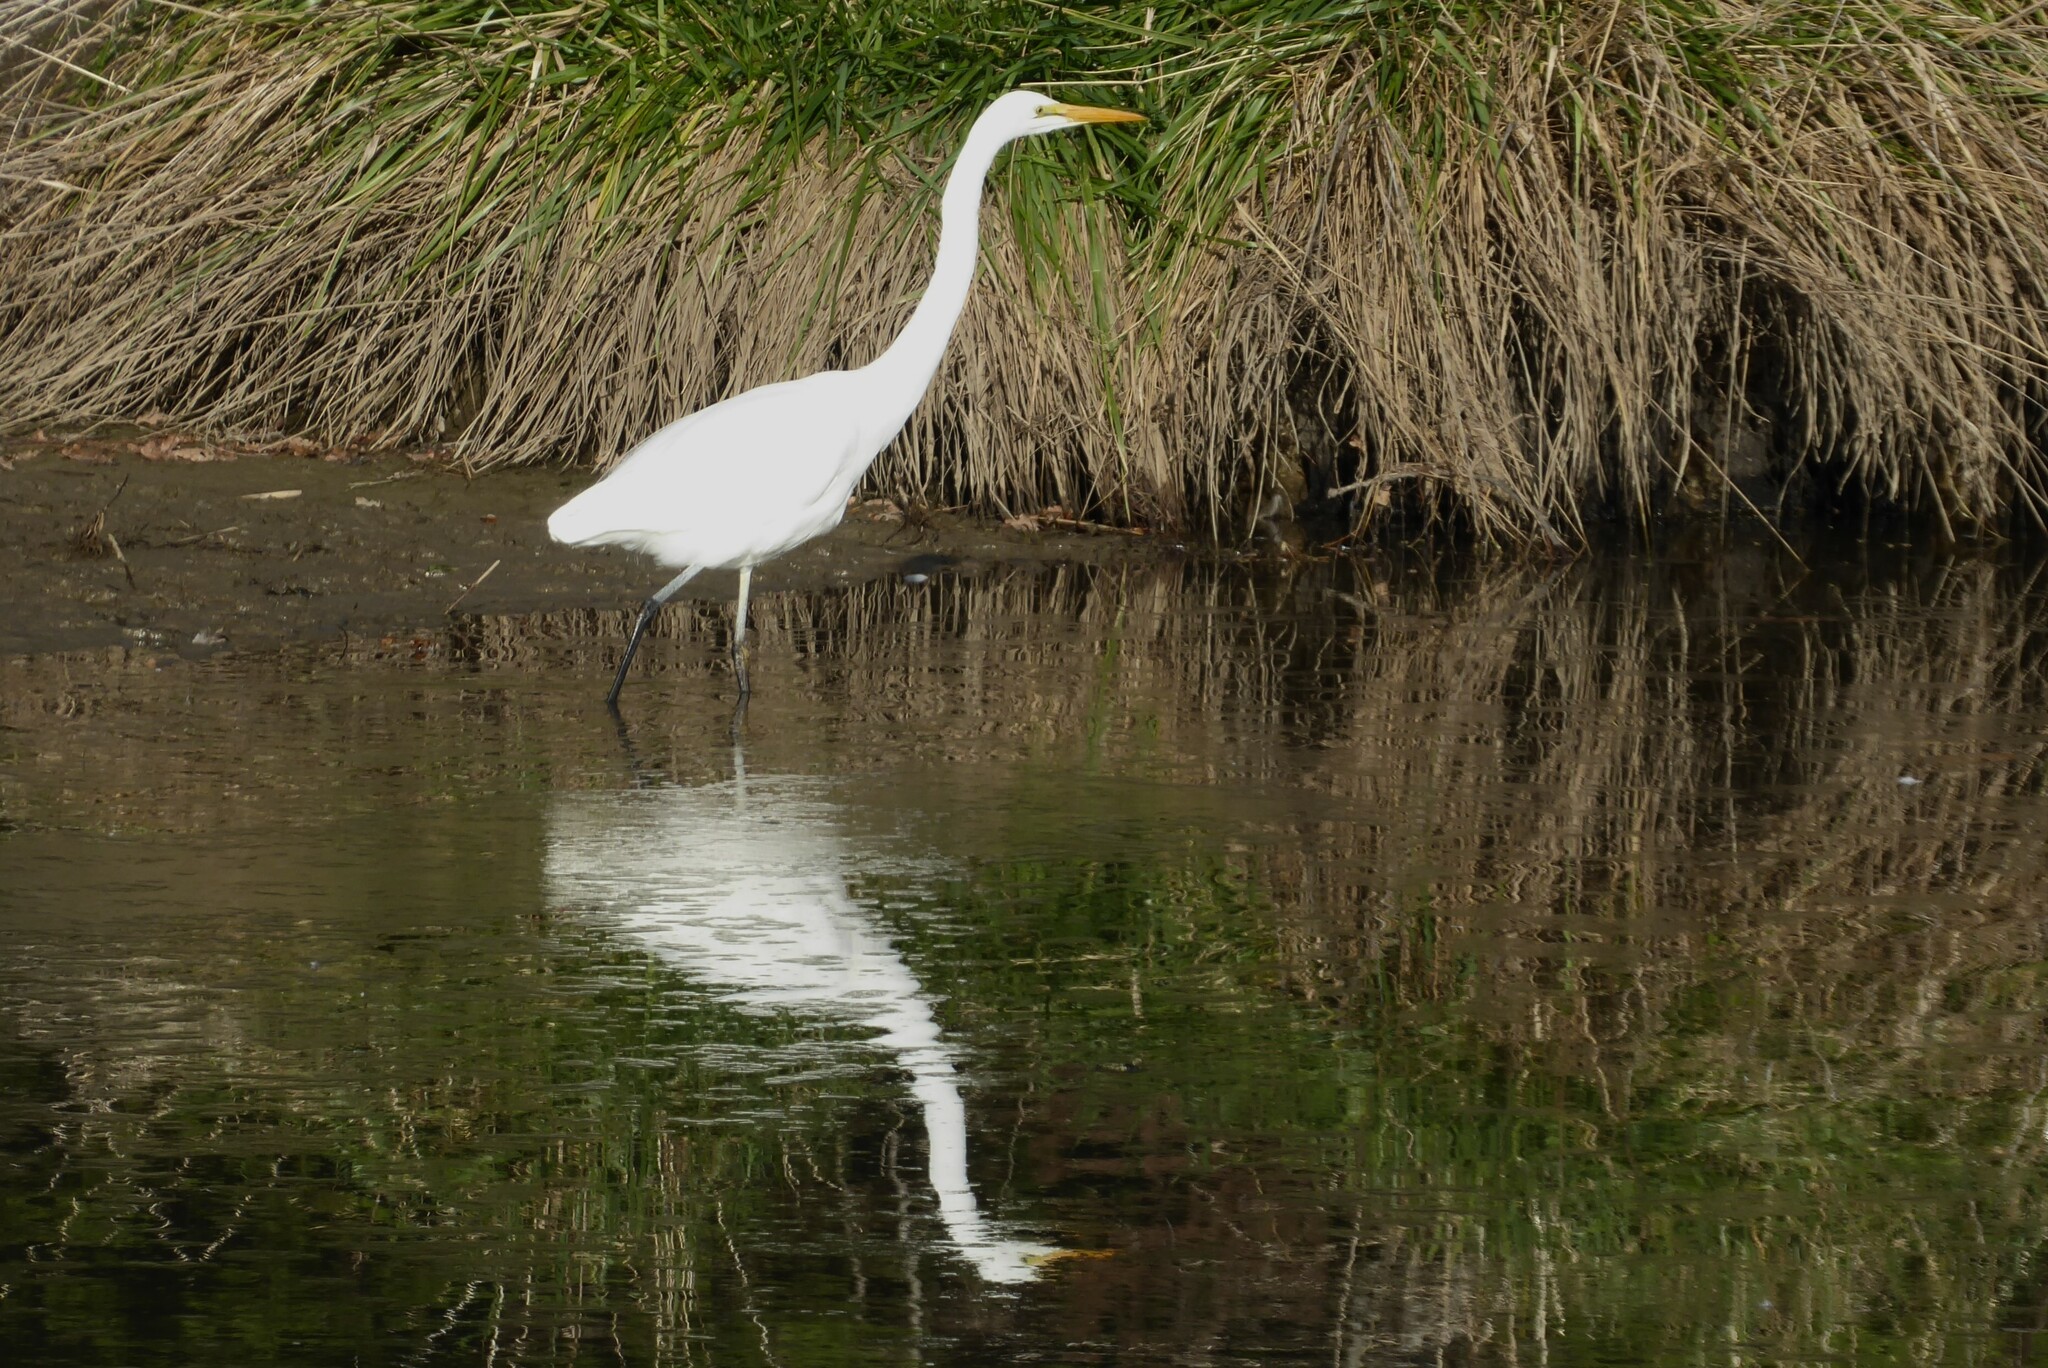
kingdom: Animalia
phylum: Chordata
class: Aves
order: Pelecaniformes
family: Ardeidae
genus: Ardea
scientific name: Ardea modesta
